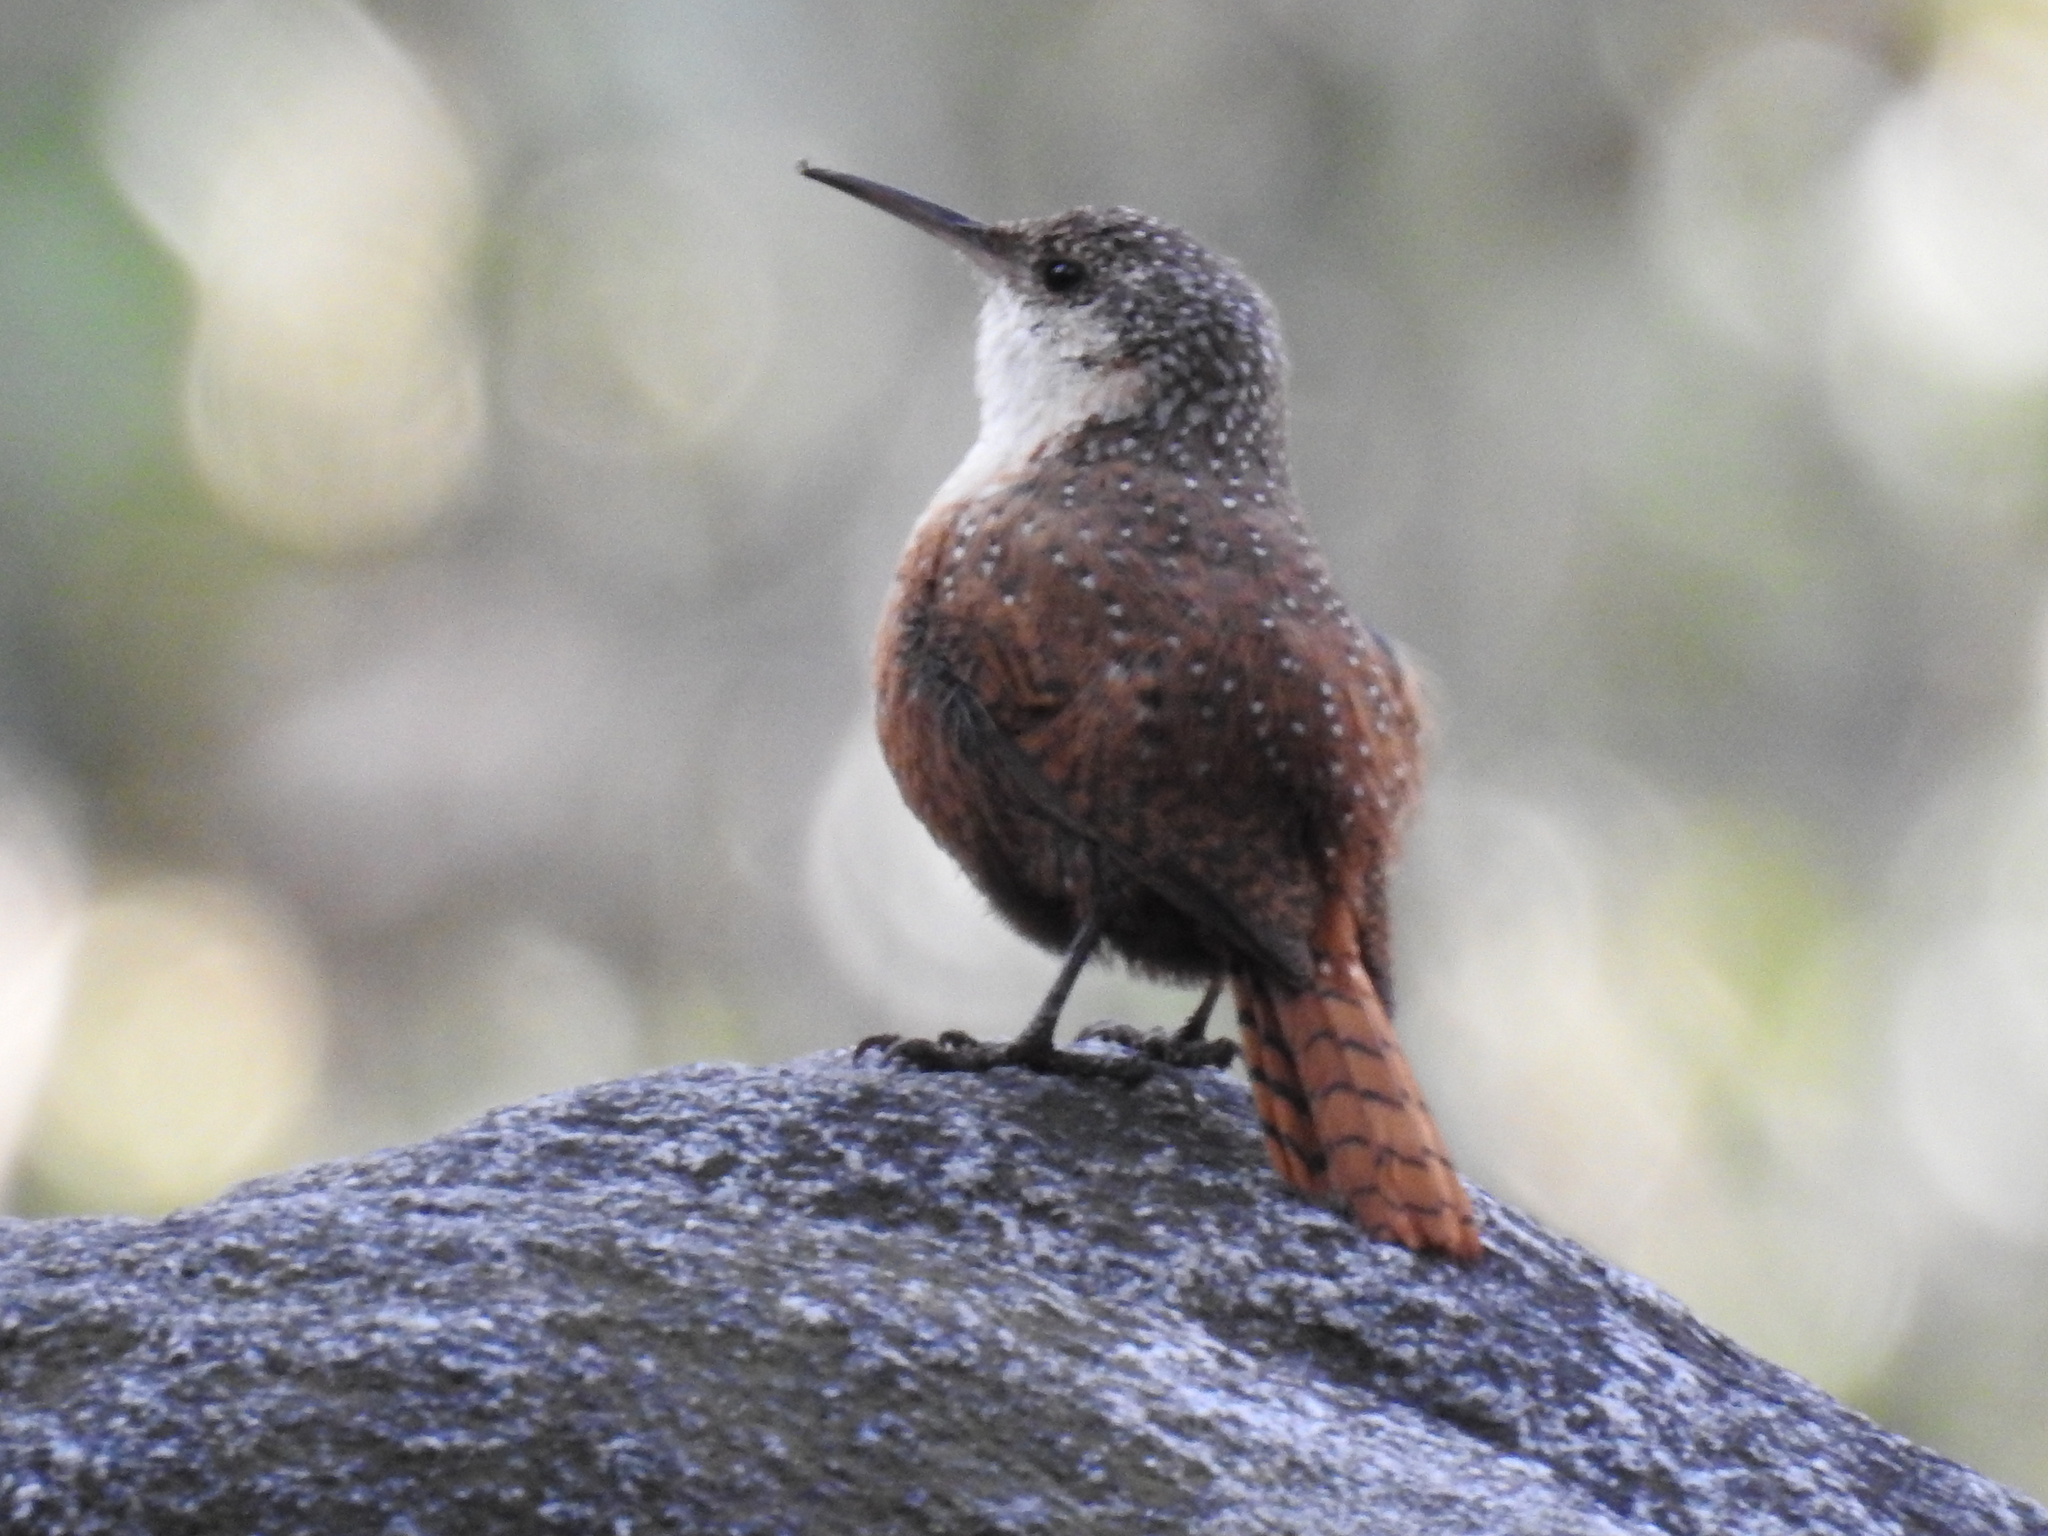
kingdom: Animalia
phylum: Chordata
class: Aves
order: Passeriformes
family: Troglodytidae
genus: Catherpes
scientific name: Catherpes mexicanus
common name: Canyon wren
